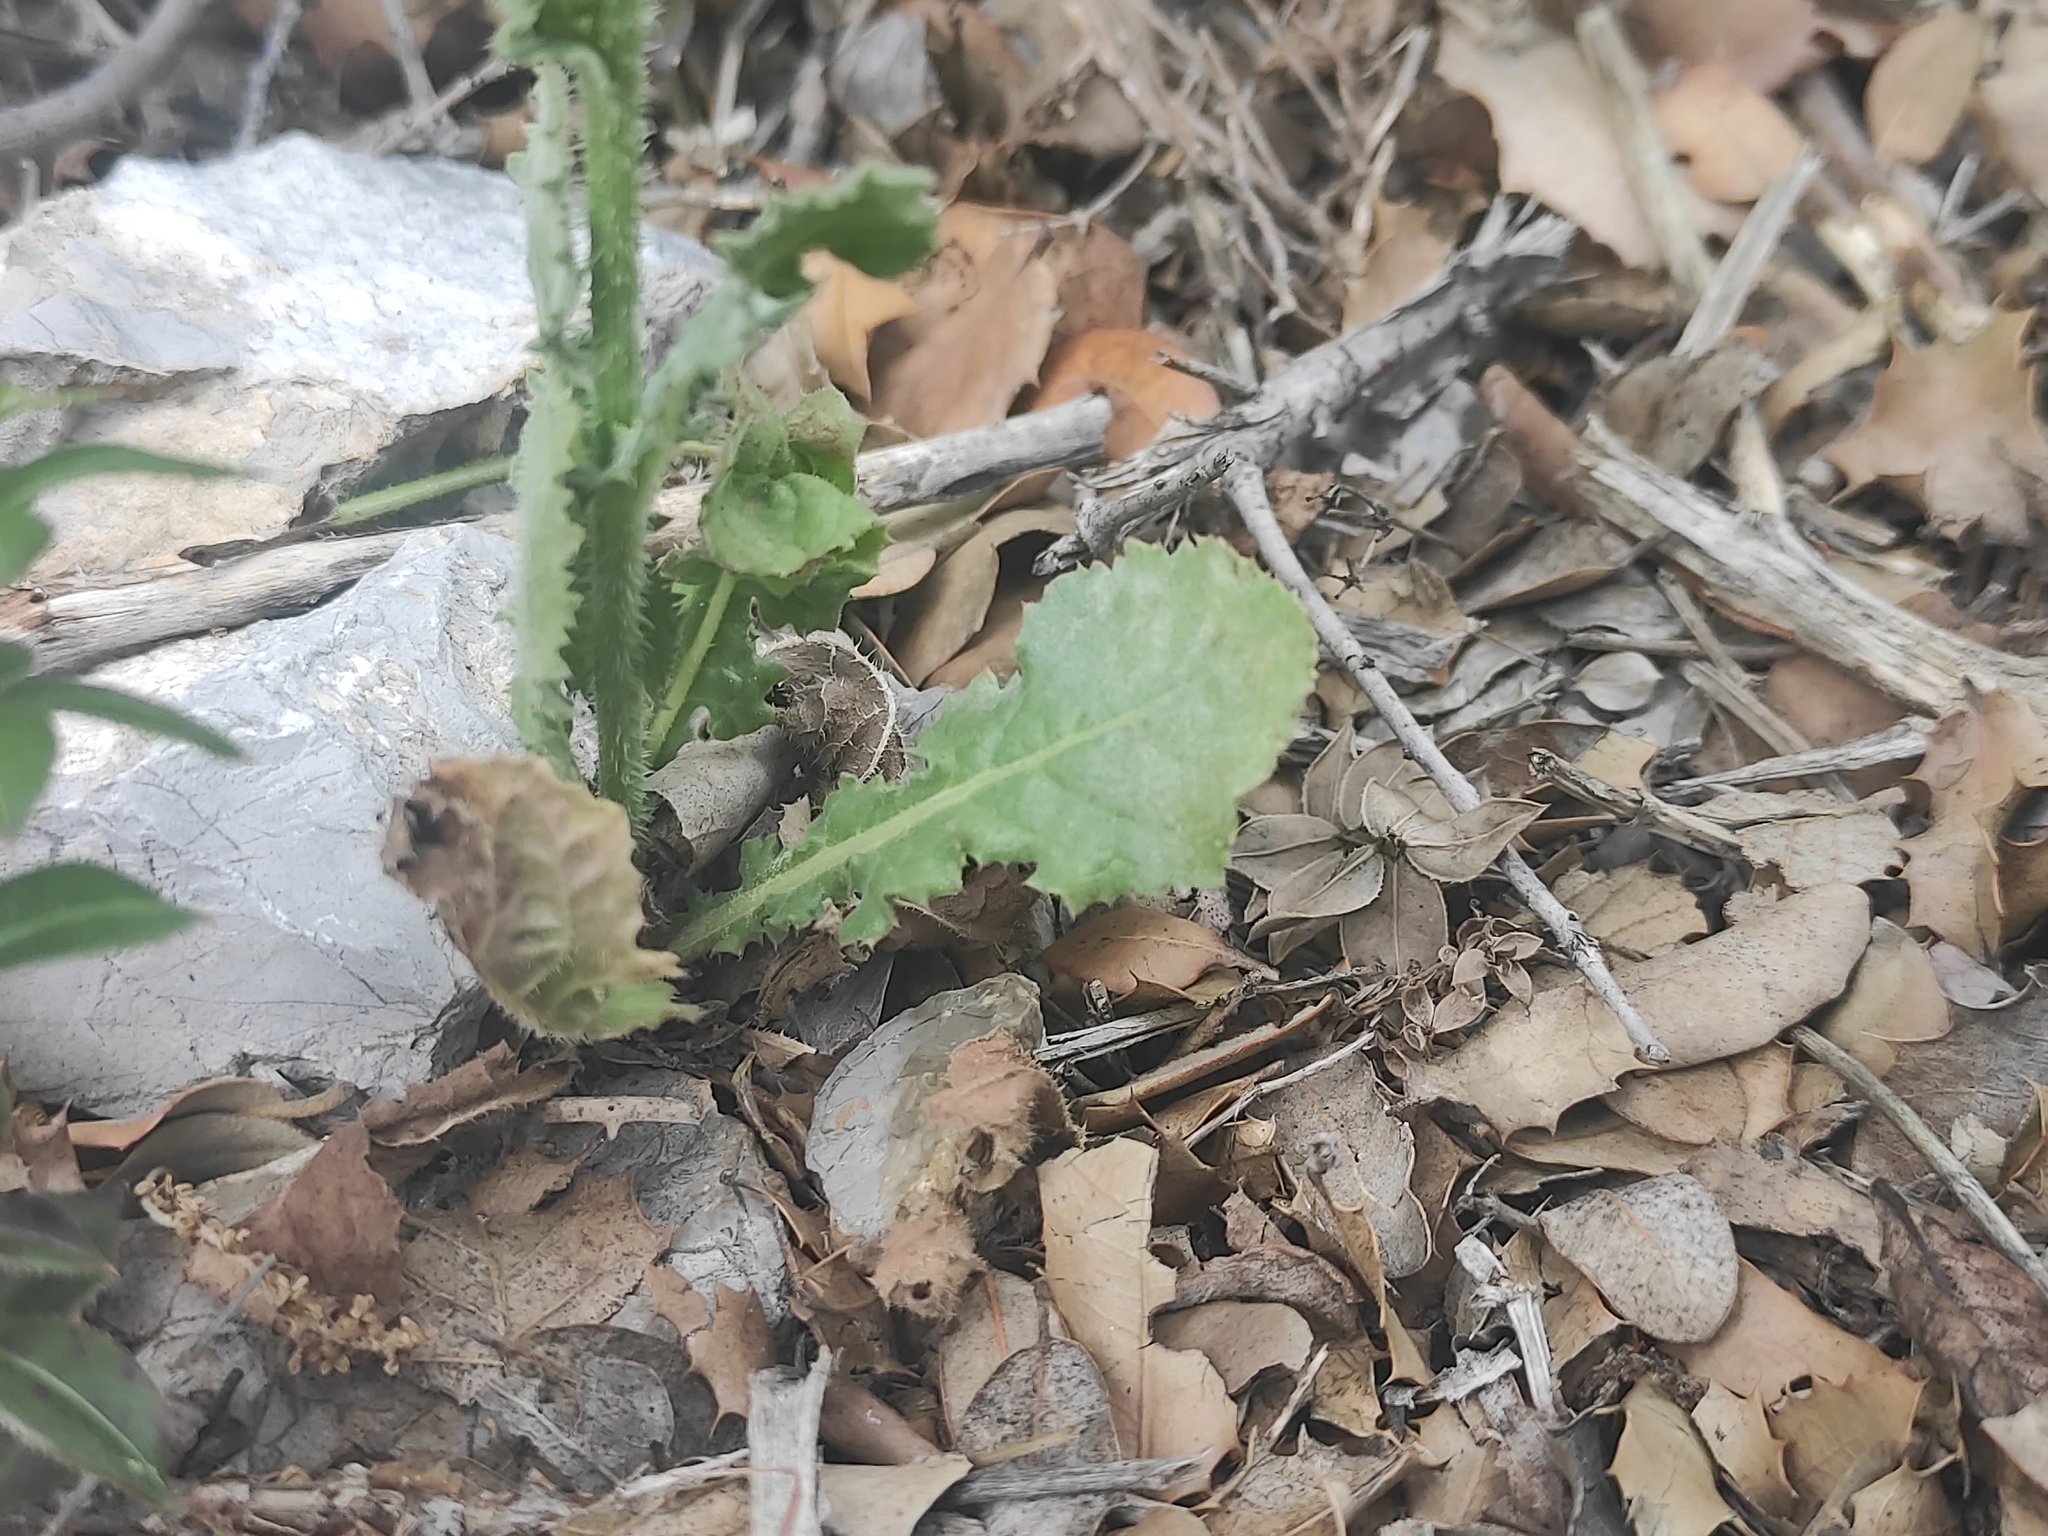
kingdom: Plantae
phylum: Tracheophyta
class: Magnoliopsida
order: Asterales
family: Asteraceae
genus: Urospermum
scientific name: Urospermum picroides
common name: False hawkbit
